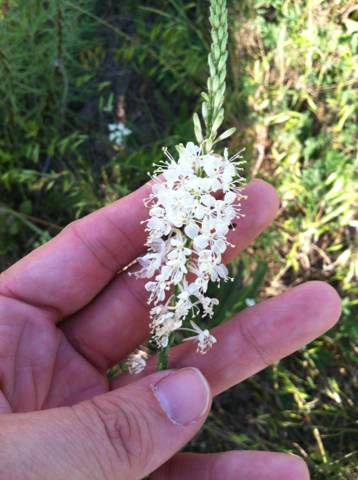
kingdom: Plantae
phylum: Tracheophyta
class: Magnoliopsida
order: Myrtales
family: Onagraceae
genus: Oenothera
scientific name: Oenothera glaucifolia
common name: False gaura
